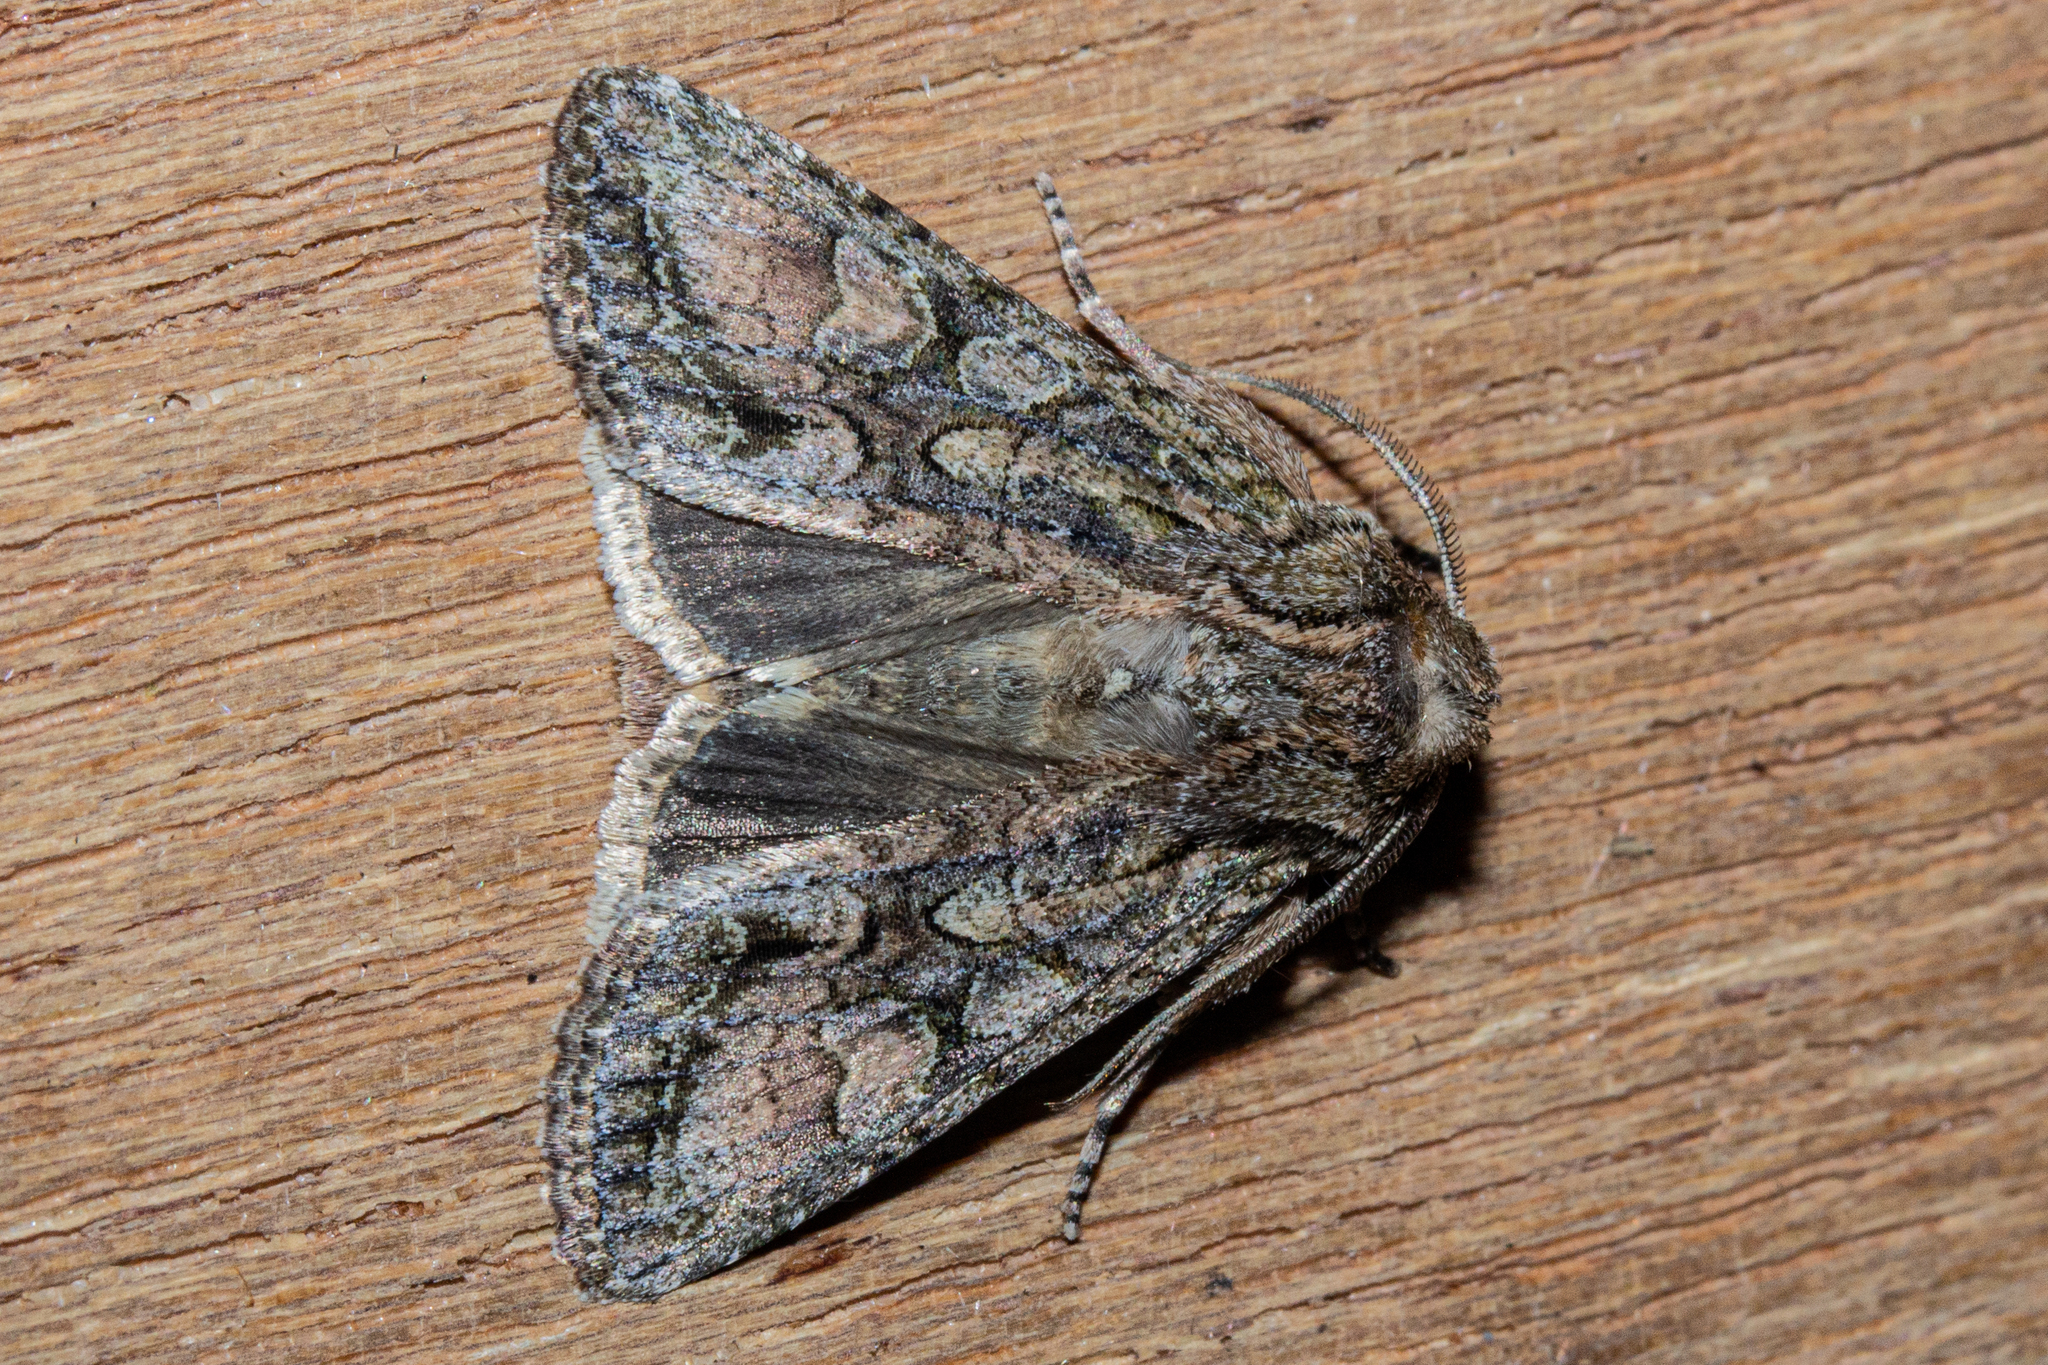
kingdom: Animalia
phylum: Arthropoda
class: Insecta
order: Lepidoptera
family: Noctuidae
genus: Ichneutica
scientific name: Ichneutica mutans
